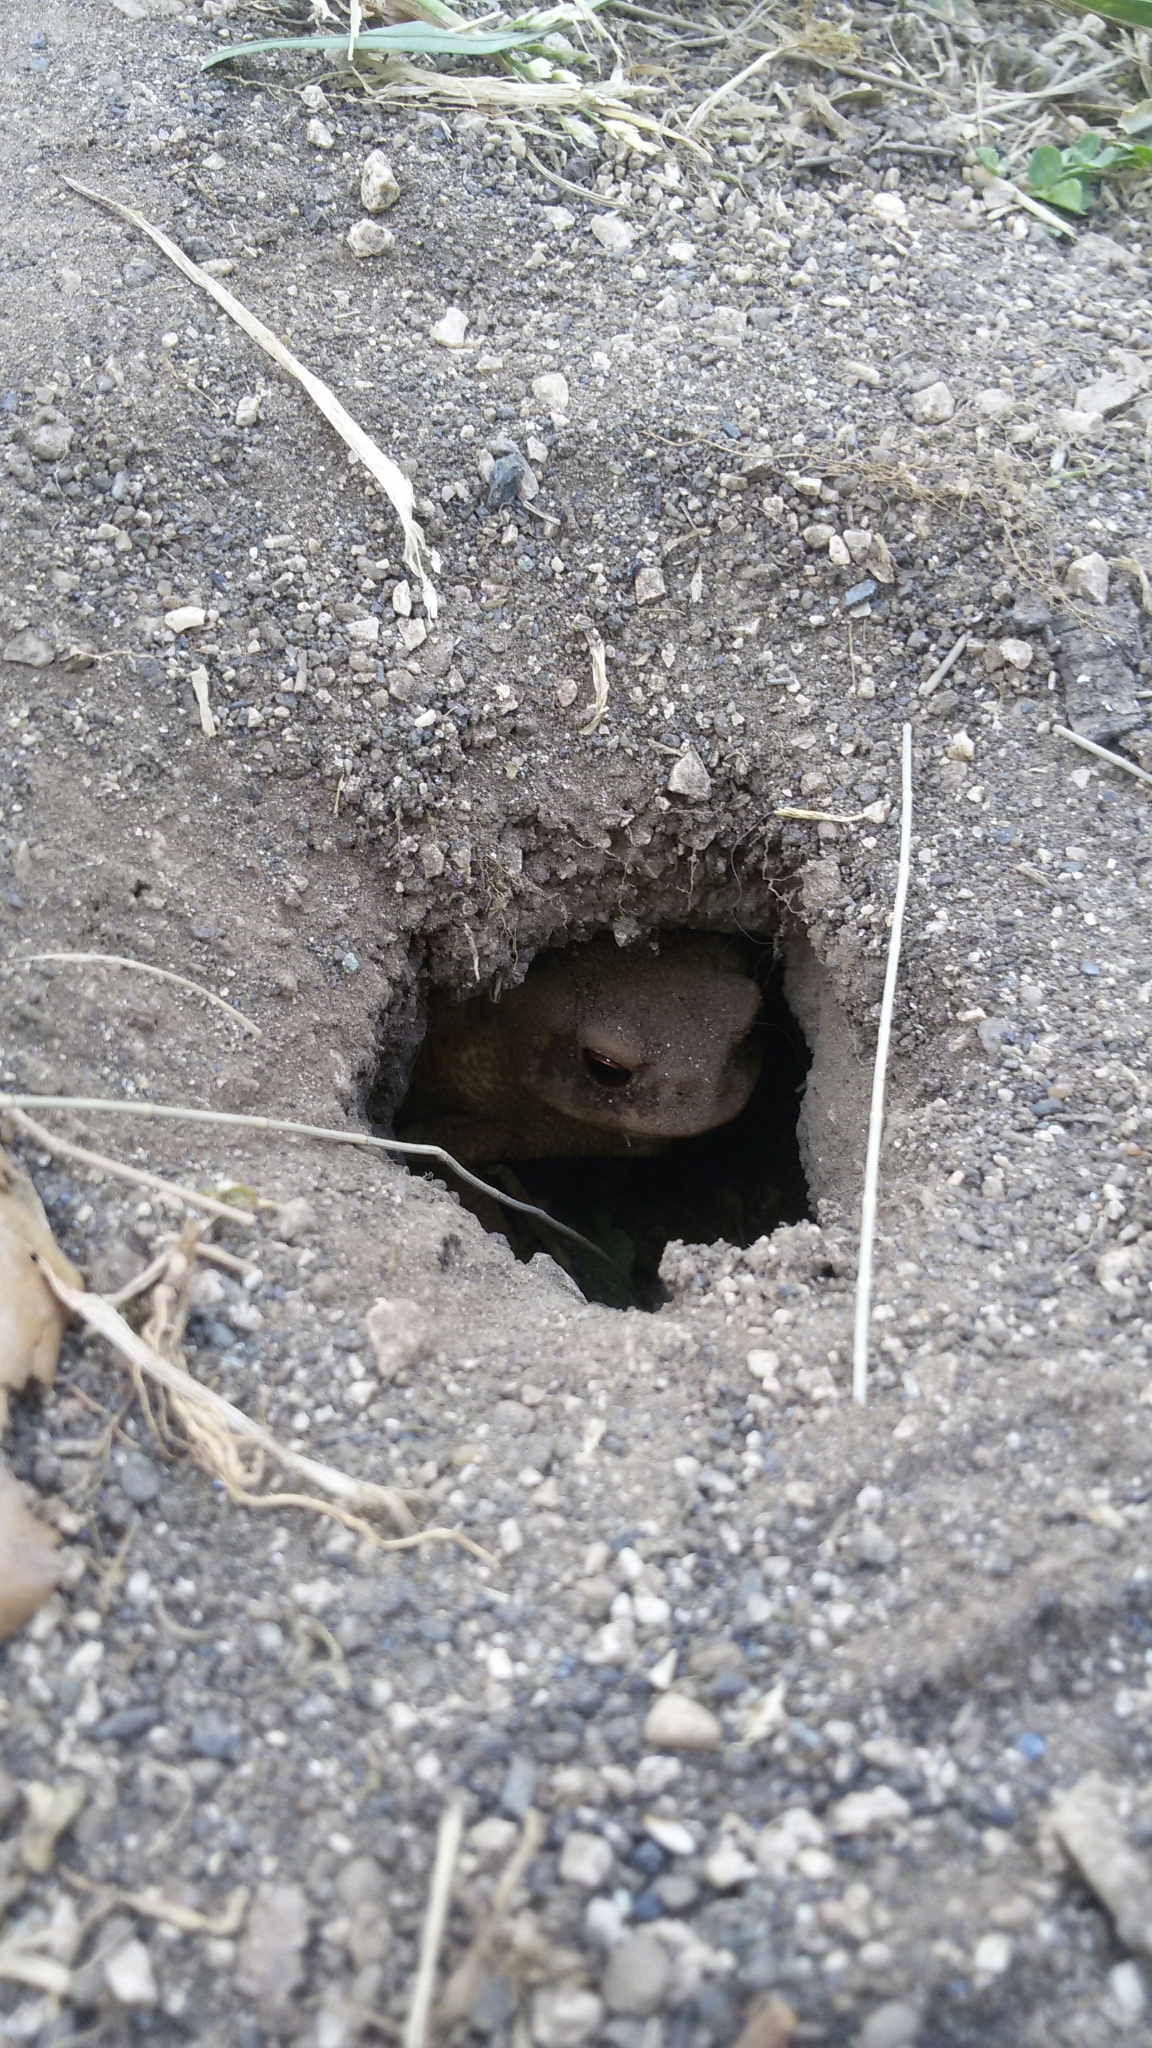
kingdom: Animalia
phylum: Chordata
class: Amphibia
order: Anura
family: Bufonidae
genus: Bufo
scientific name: Bufo bufo
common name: Common toad
